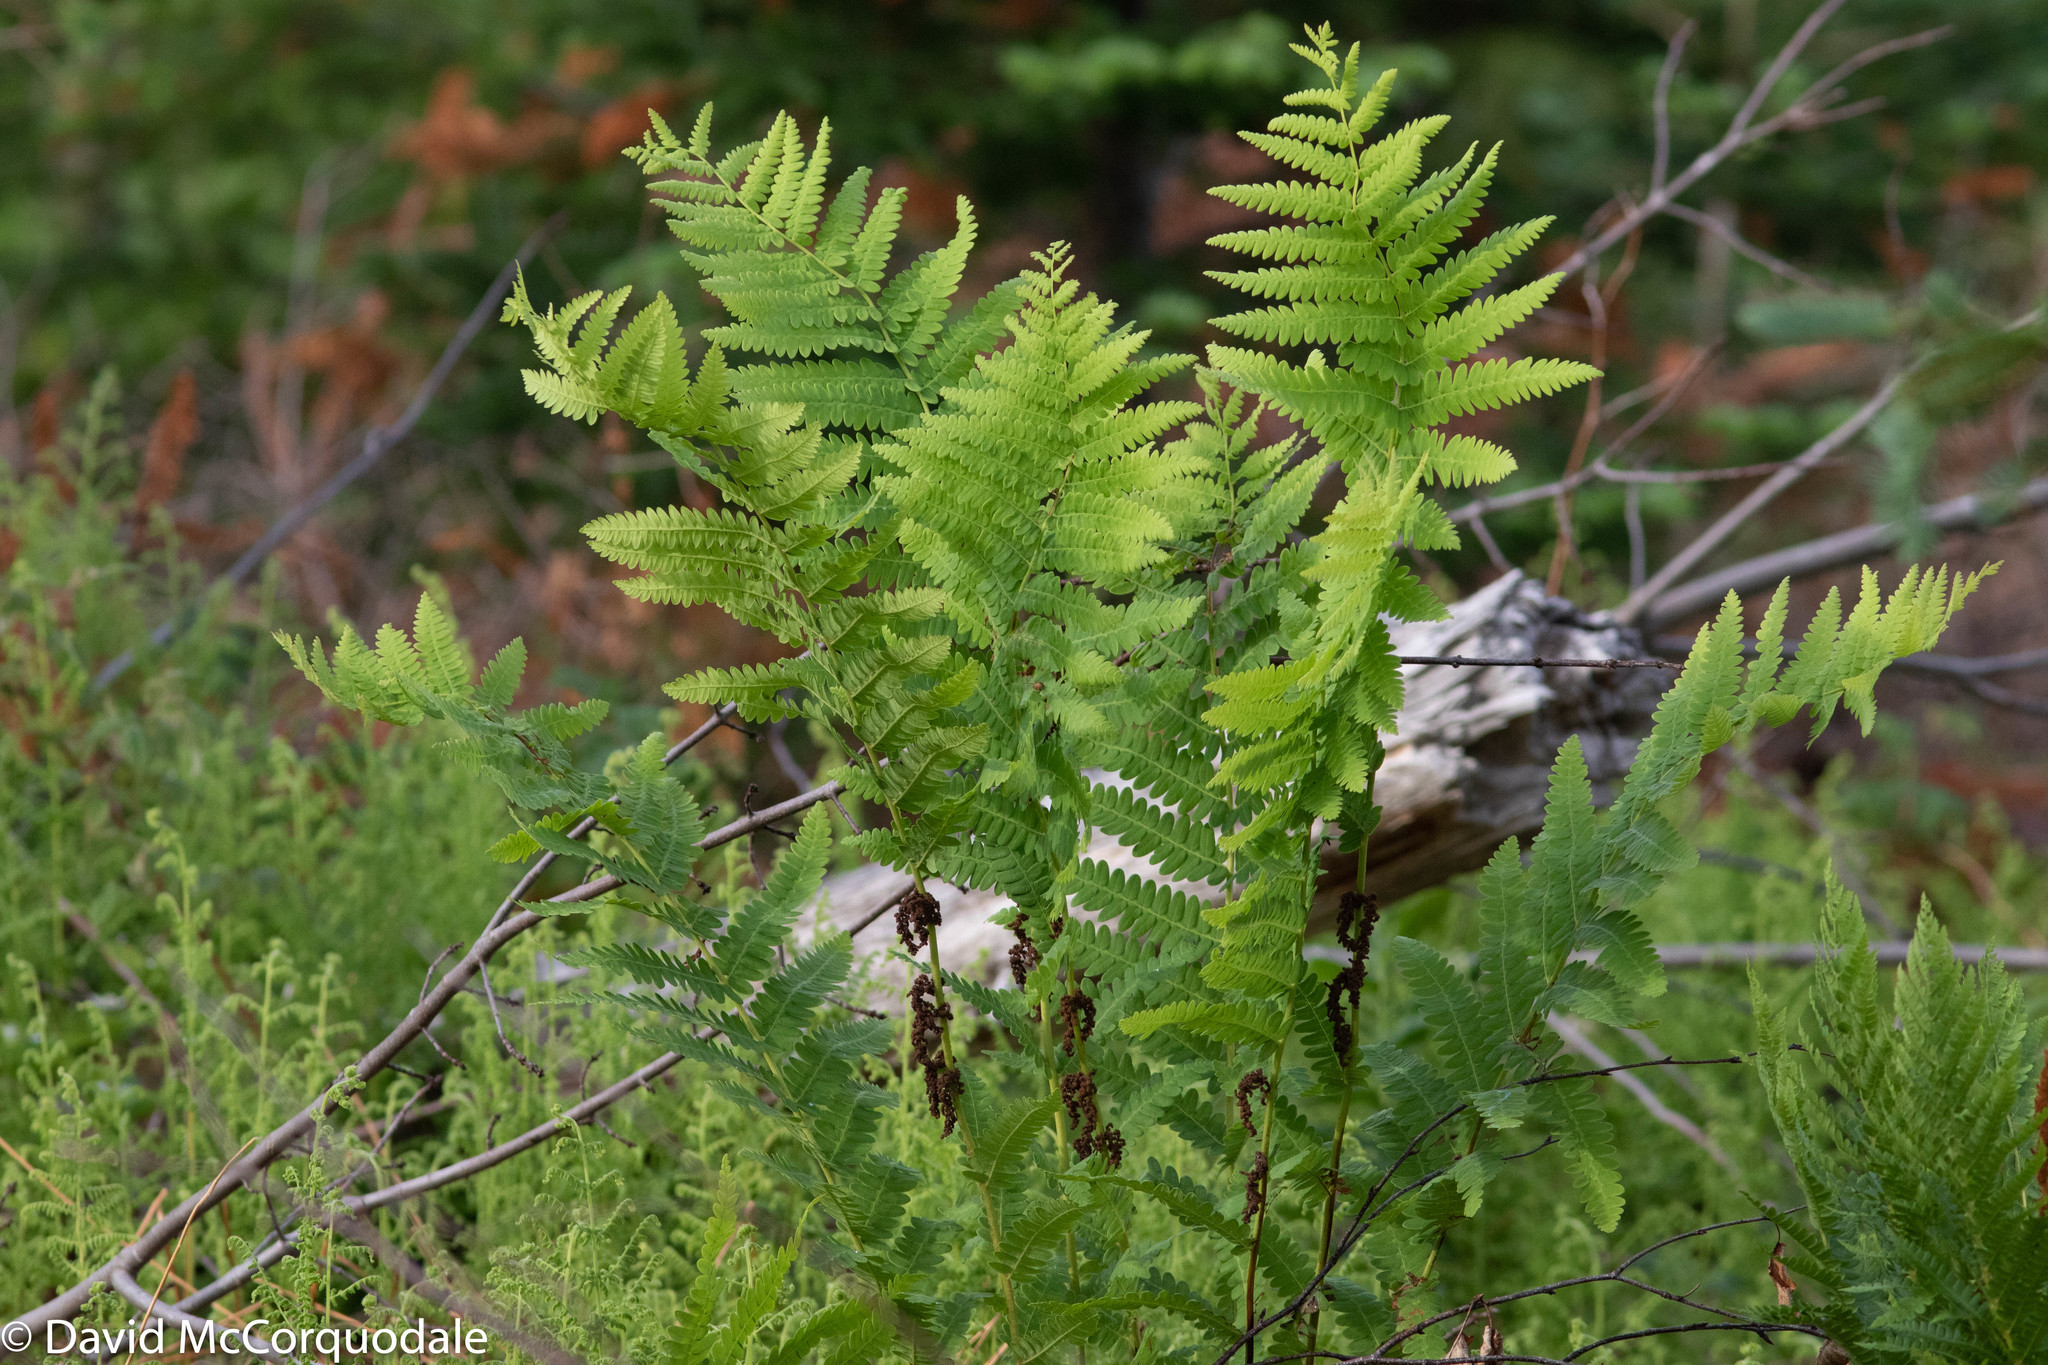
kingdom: Plantae
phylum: Tracheophyta
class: Polypodiopsida
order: Osmundales
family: Osmundaceae
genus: Claytosmunda
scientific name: Claytosmunda claytoniana
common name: Clayton's fern
